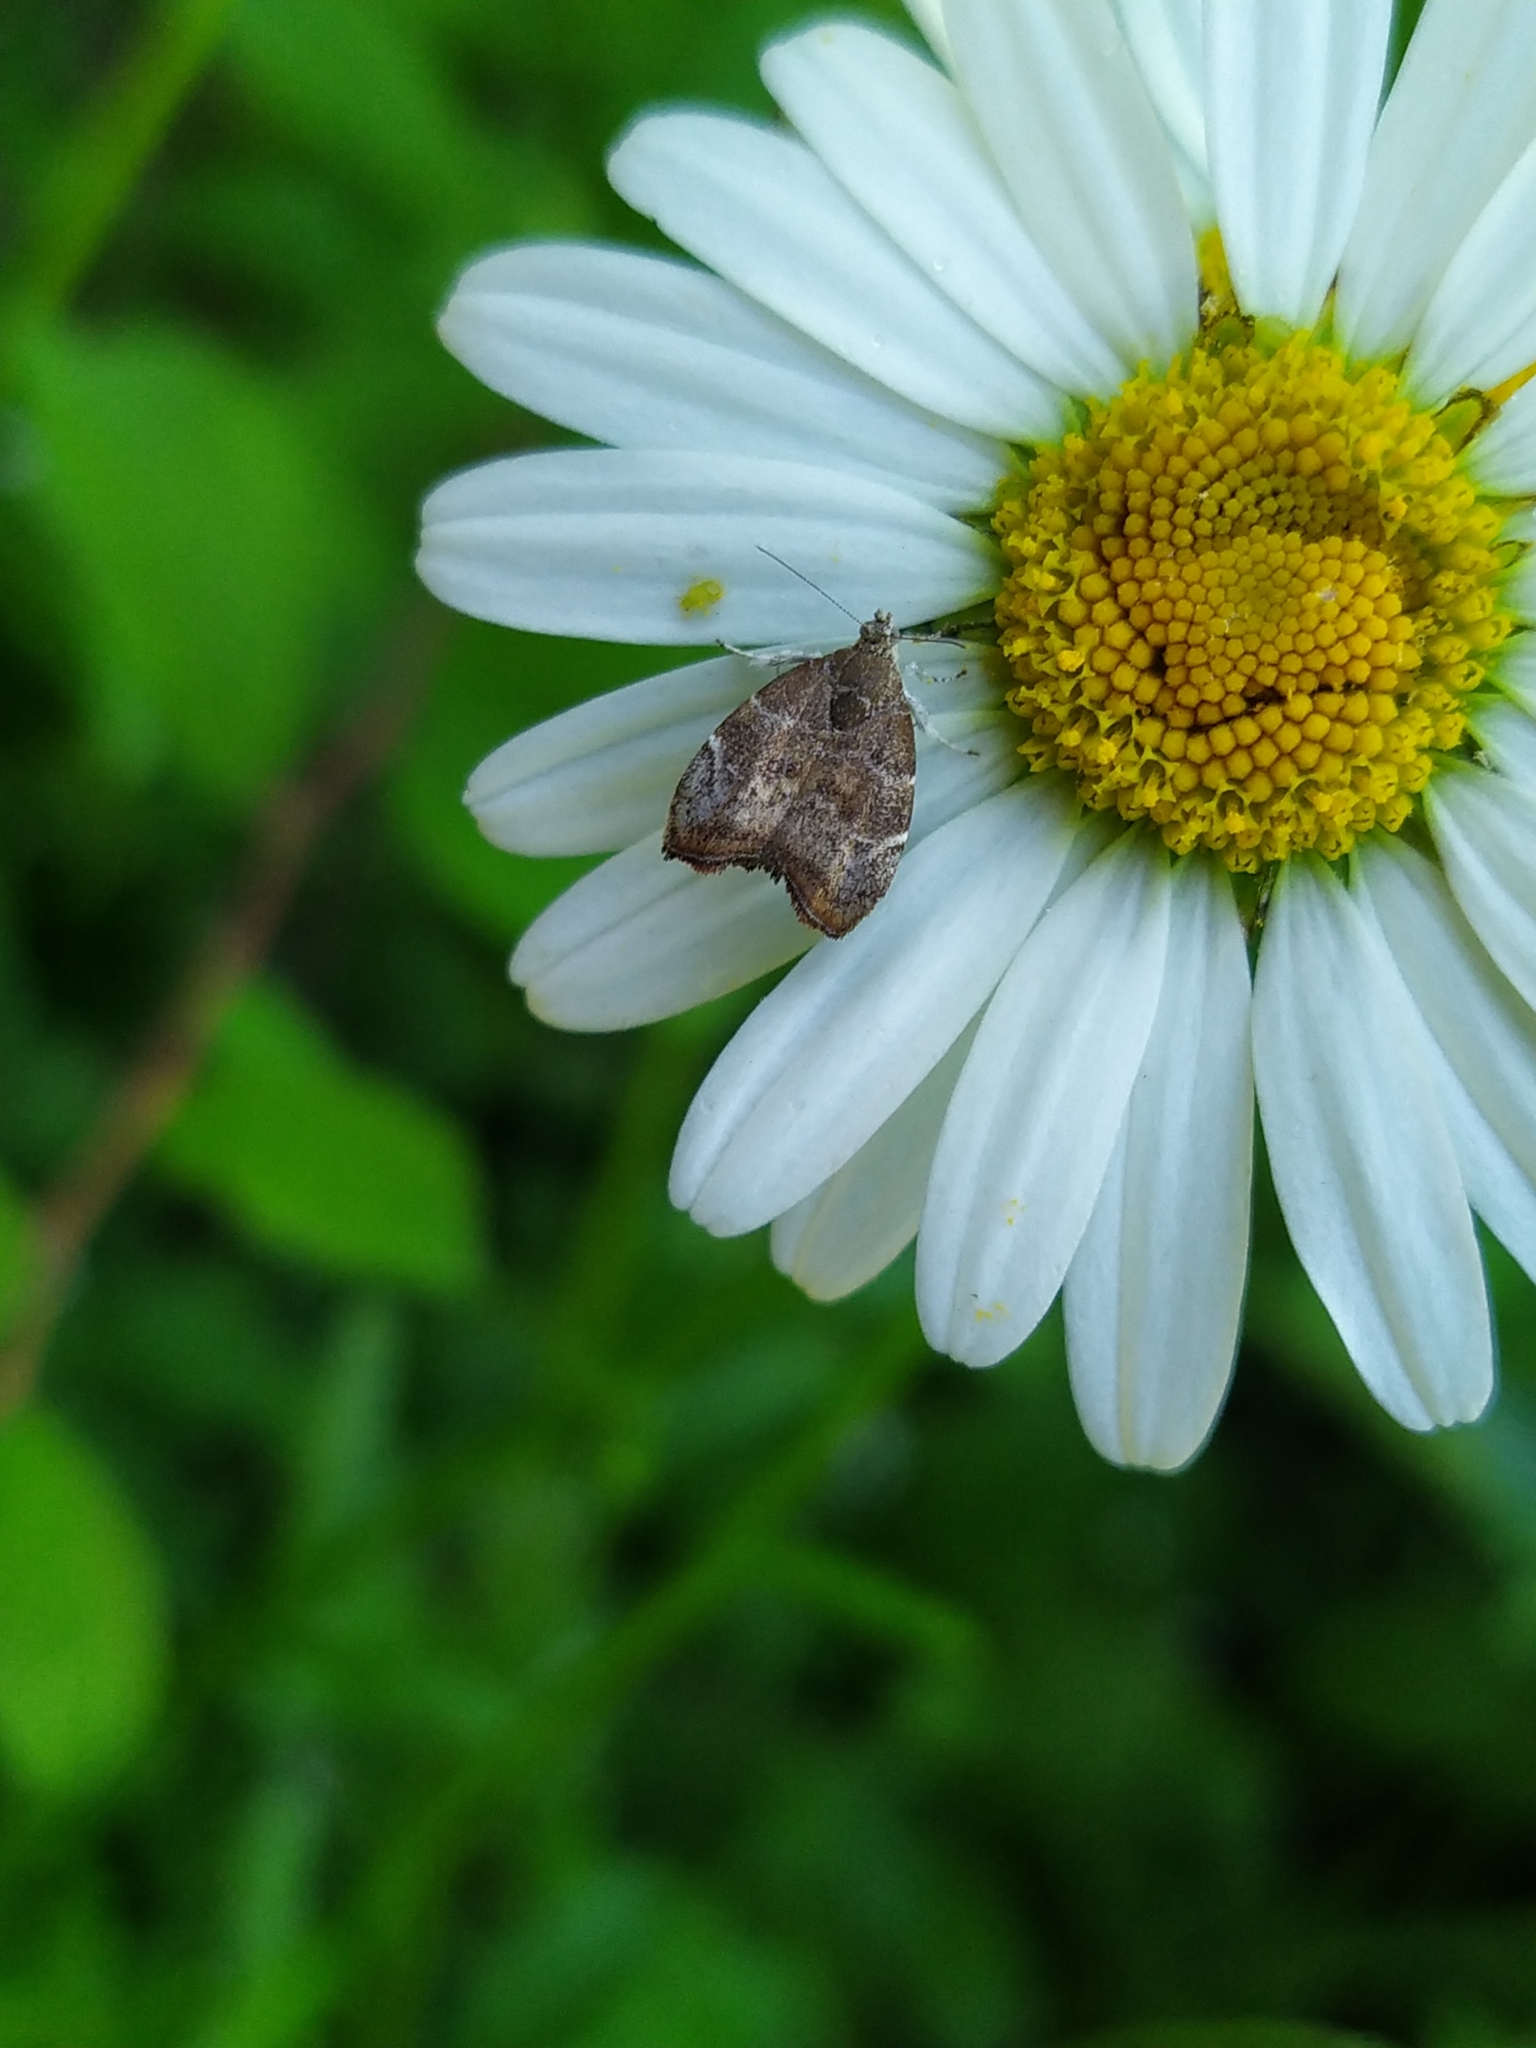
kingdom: Animalia
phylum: Arthropoda
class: Insecta
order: Lepidoptera
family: Choreutidae
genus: Anthophila
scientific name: Anthophila nemorana
